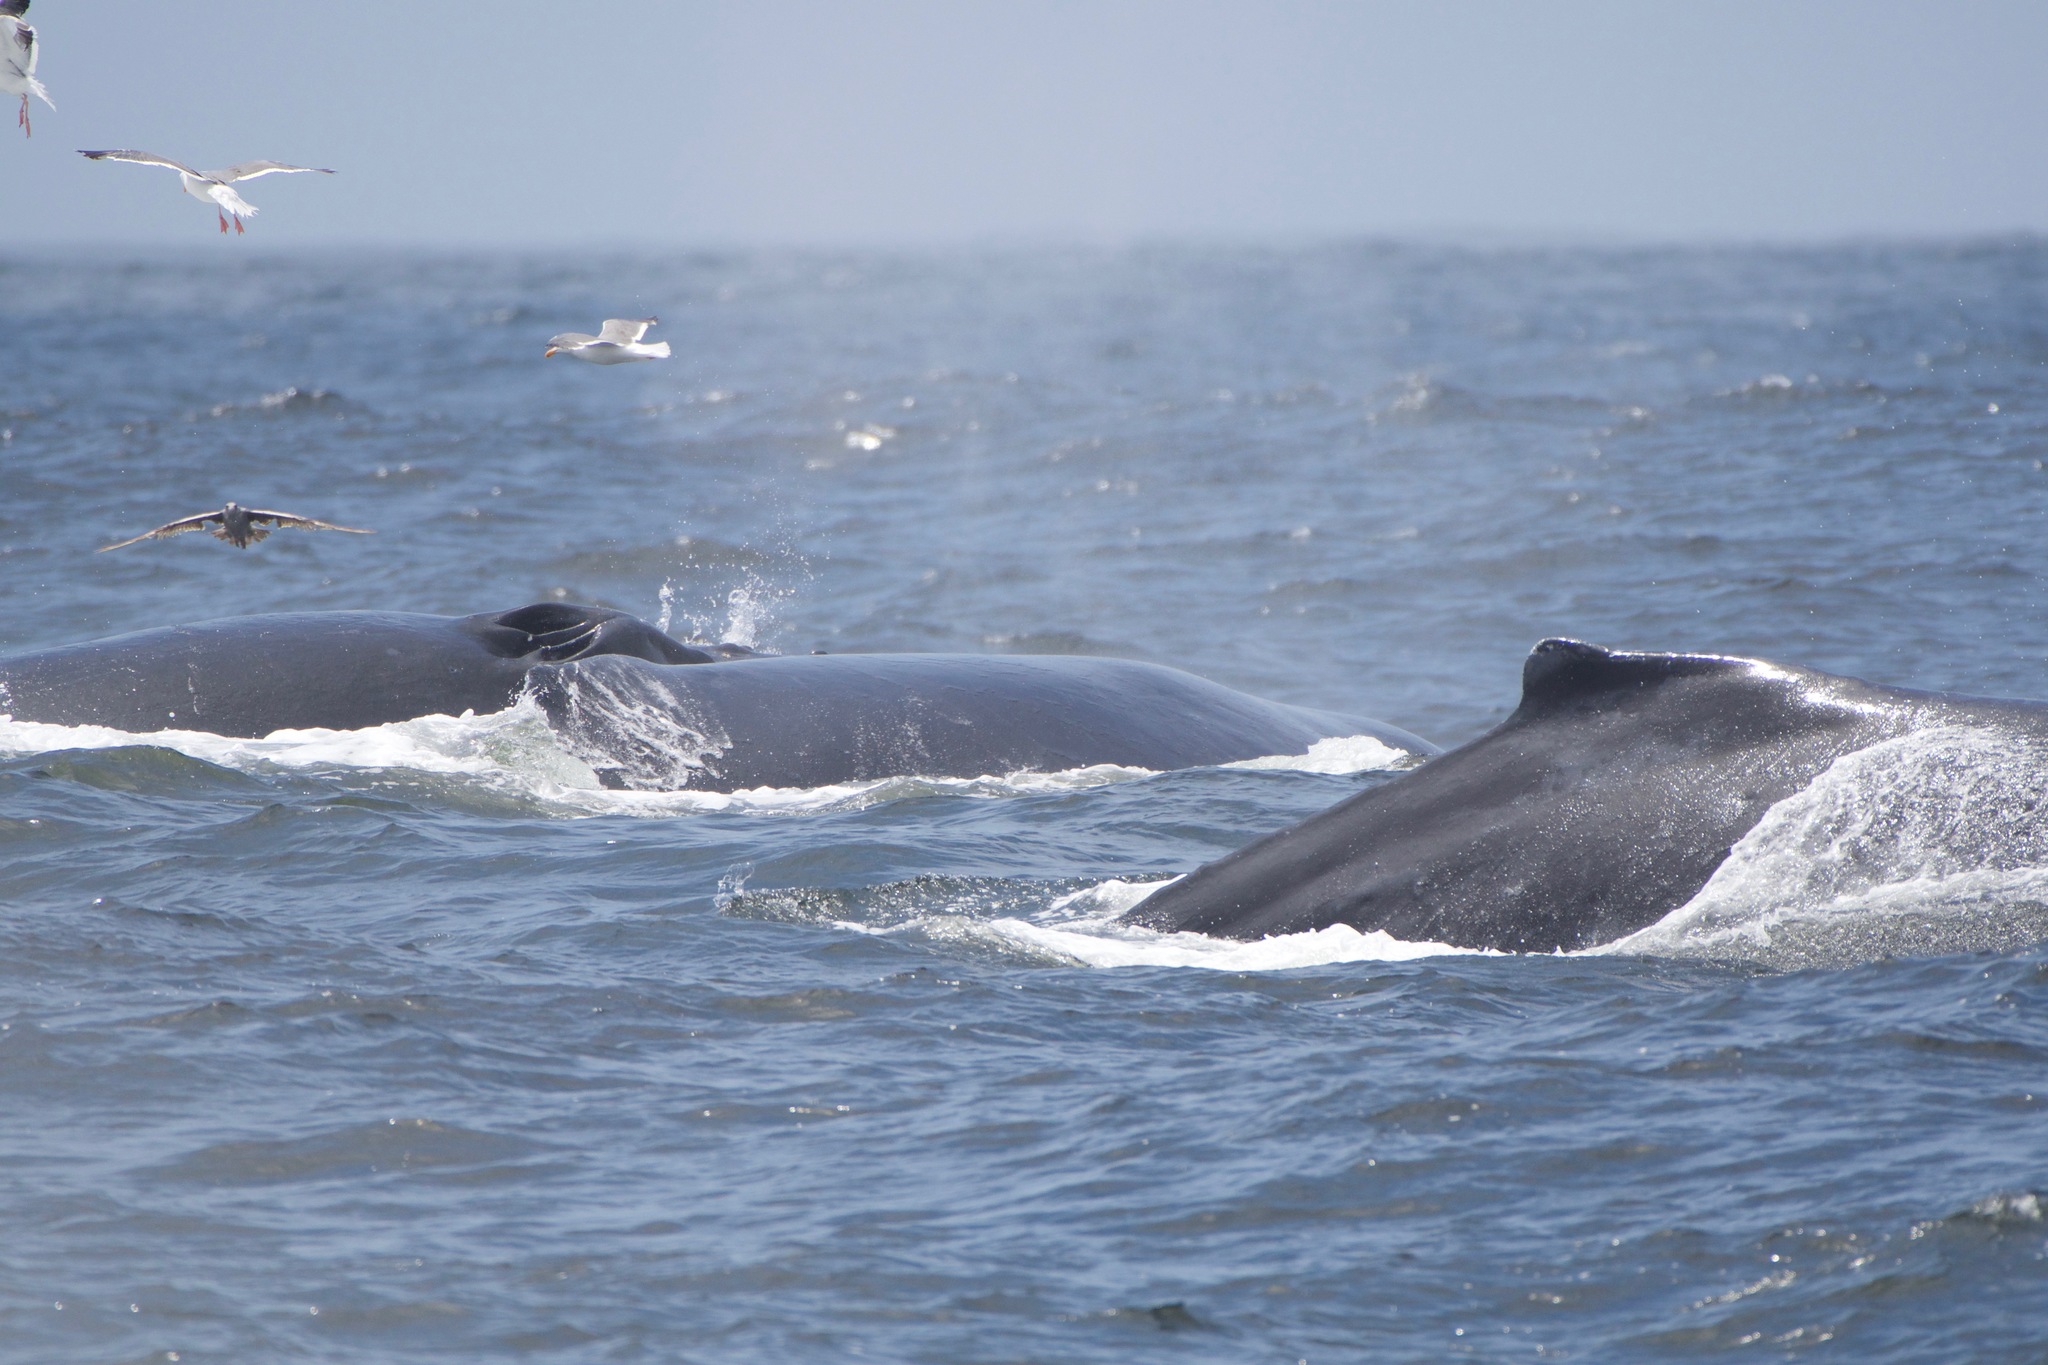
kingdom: Animalia
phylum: Chordata
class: Mammalia
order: Cetacea
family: Balaenopteridae
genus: Megaptera
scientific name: Megaptera novaeangliae
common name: Humpback whale
